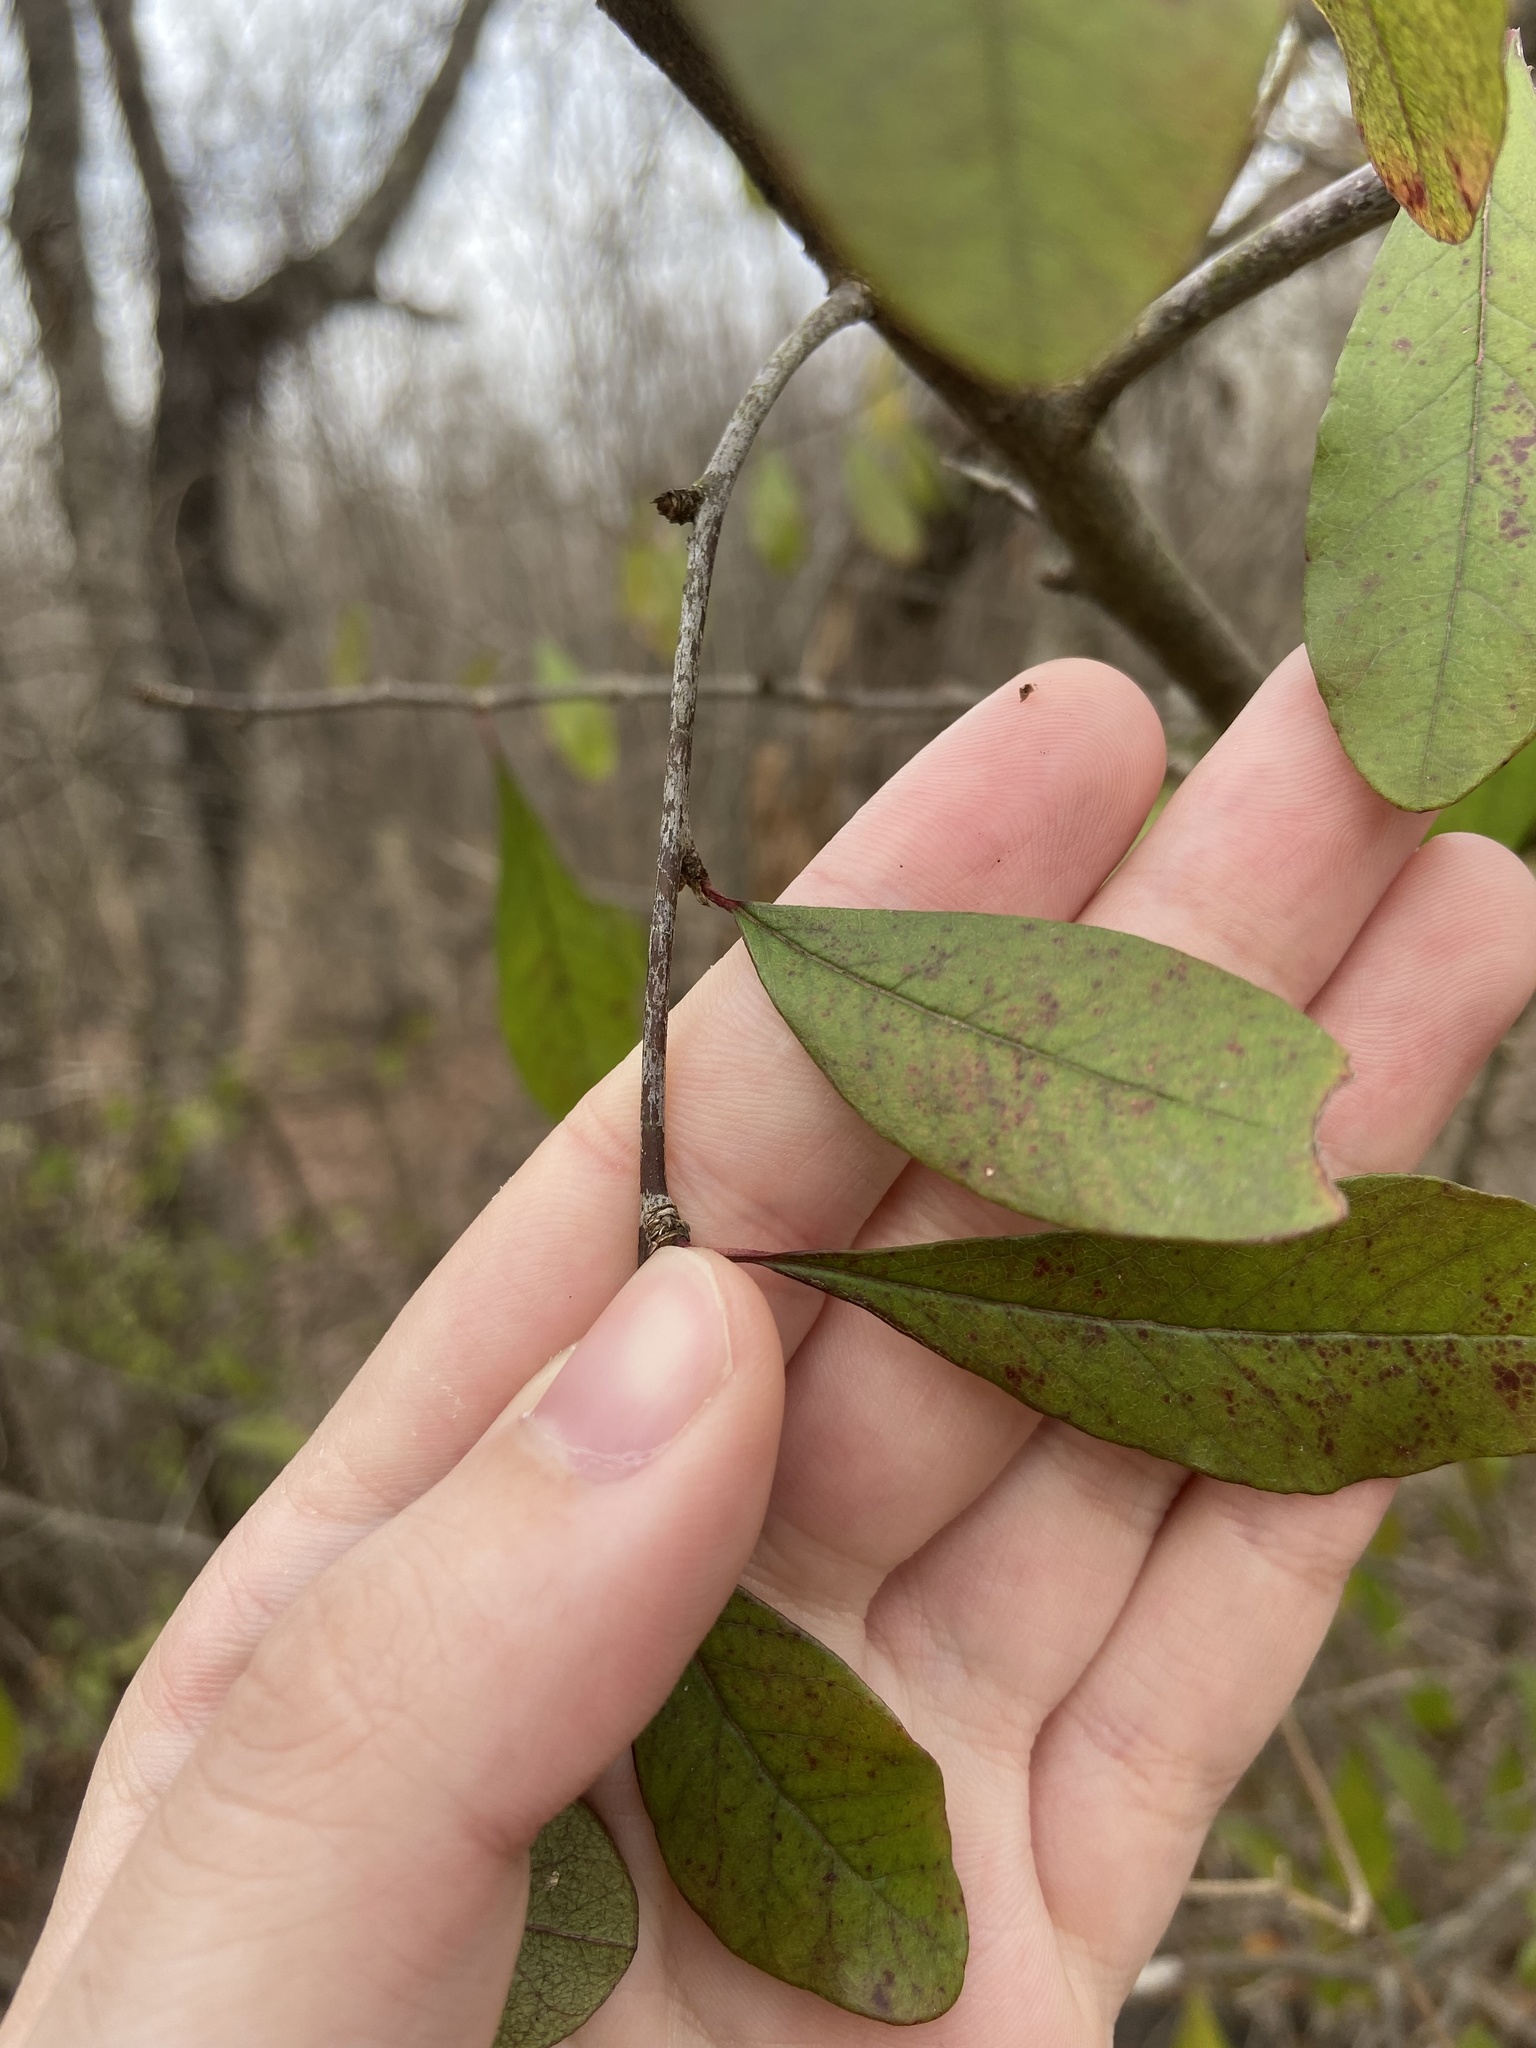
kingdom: Plantae
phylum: Tracheophyta
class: Magnoliopsida
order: Aquifoliales
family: Aquifoliaceae
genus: Ilex
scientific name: Ilex decidua
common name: Possum-haw
